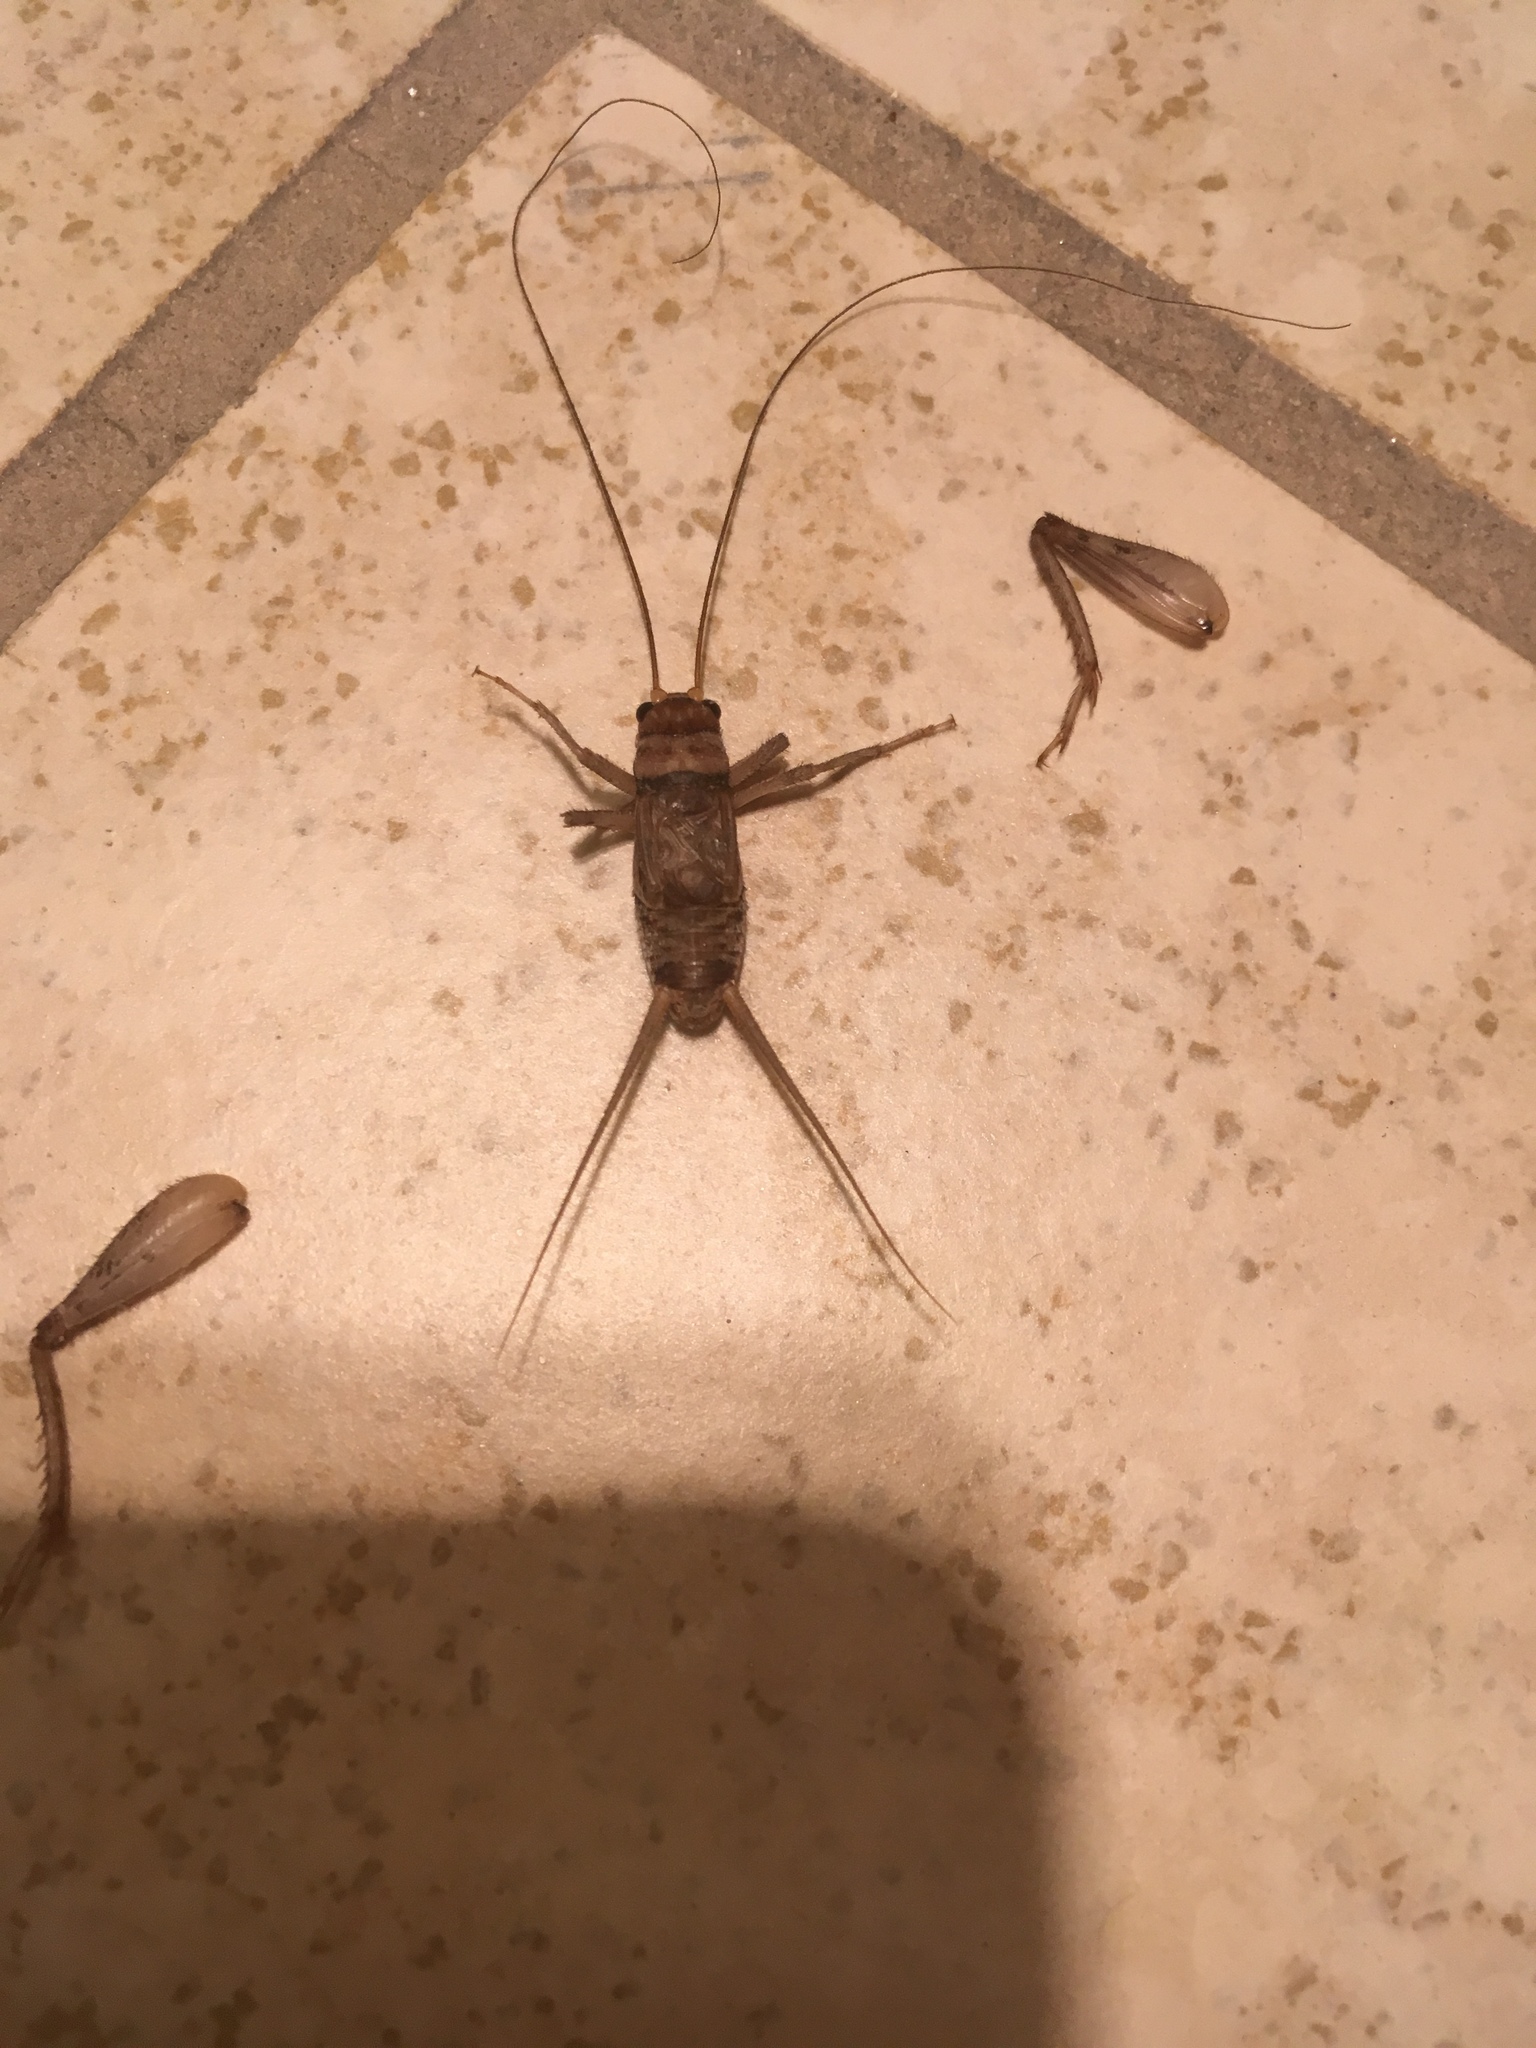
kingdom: Animalia
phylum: Arthropoda
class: Insecta
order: Orthoptera
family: Gryllidae
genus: Gryllodes
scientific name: Gryllodes sigillatus
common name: Tropical house cricket
